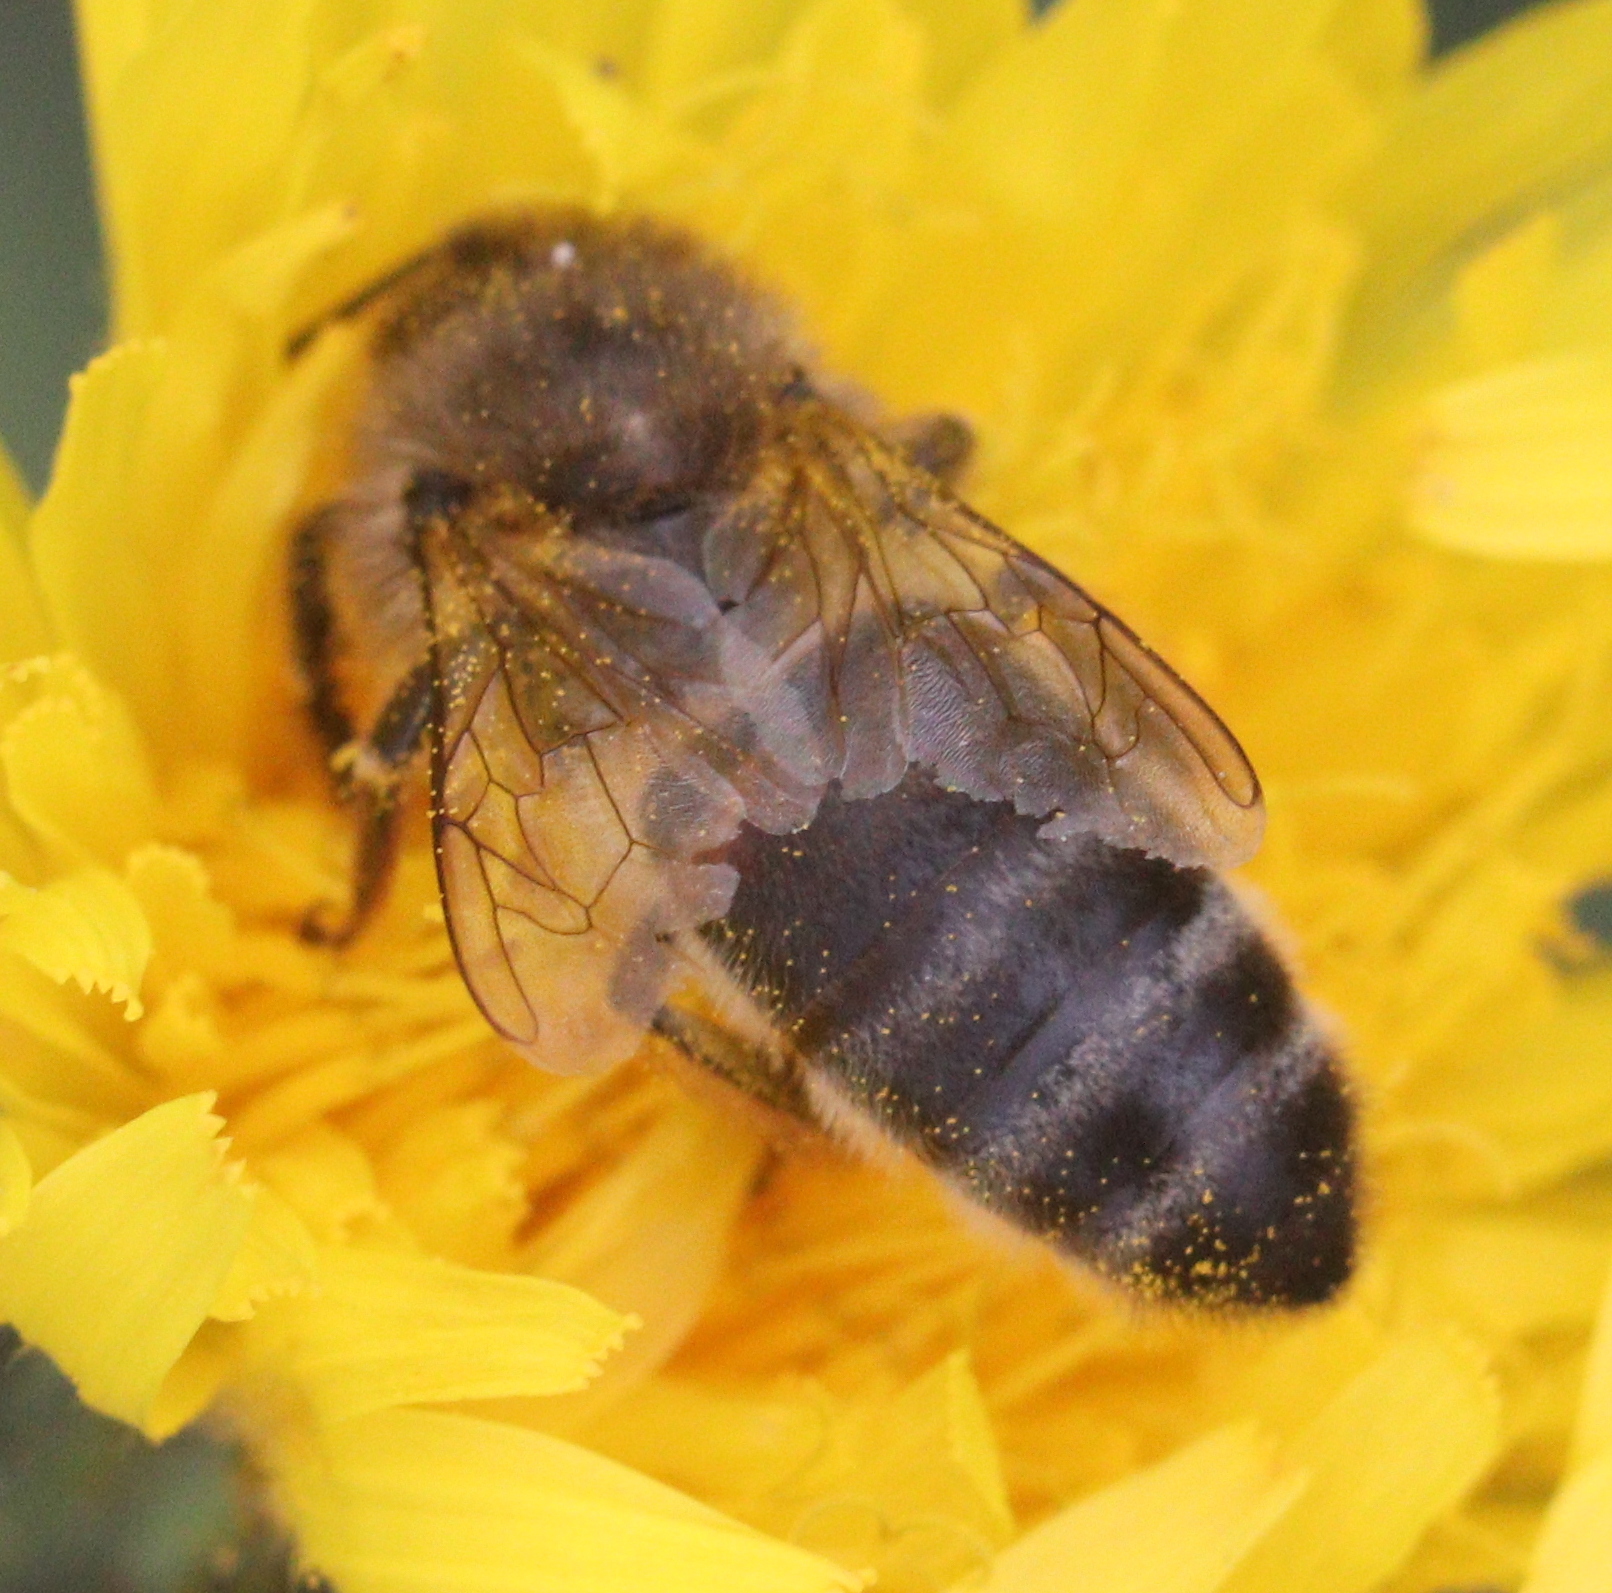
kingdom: Animalia
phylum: Arthropoda
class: Insecta
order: Hymenoptera
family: Apidae
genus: Apis
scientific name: Apis mellifera
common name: Honey bee
